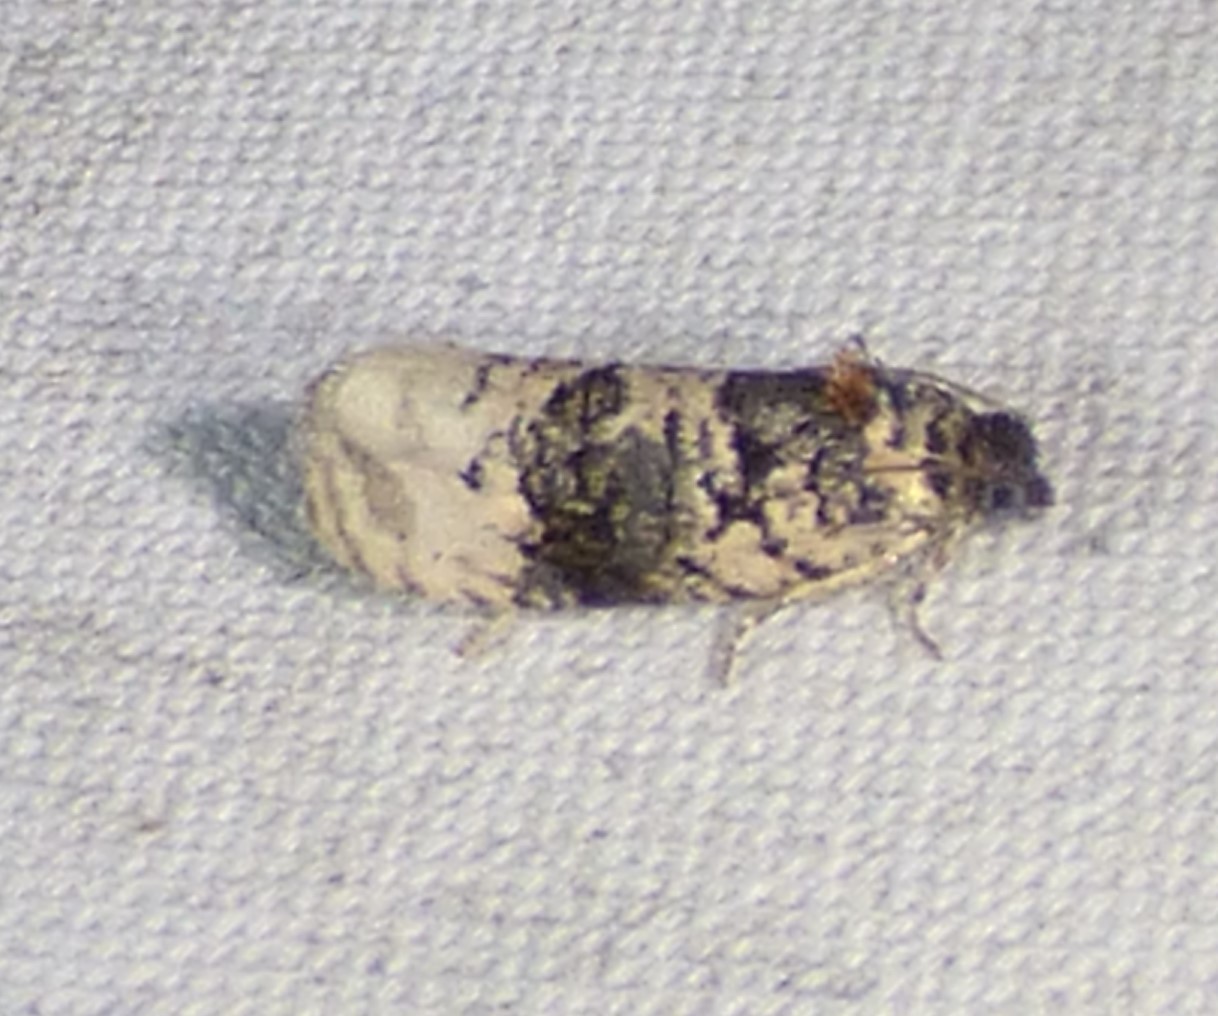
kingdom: Animalia
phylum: Arthropoda
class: Insecta
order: Lepidoptera
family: Tortricidae
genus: Hedya
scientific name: Hedya separatana
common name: Pink-washed leafroller moth
